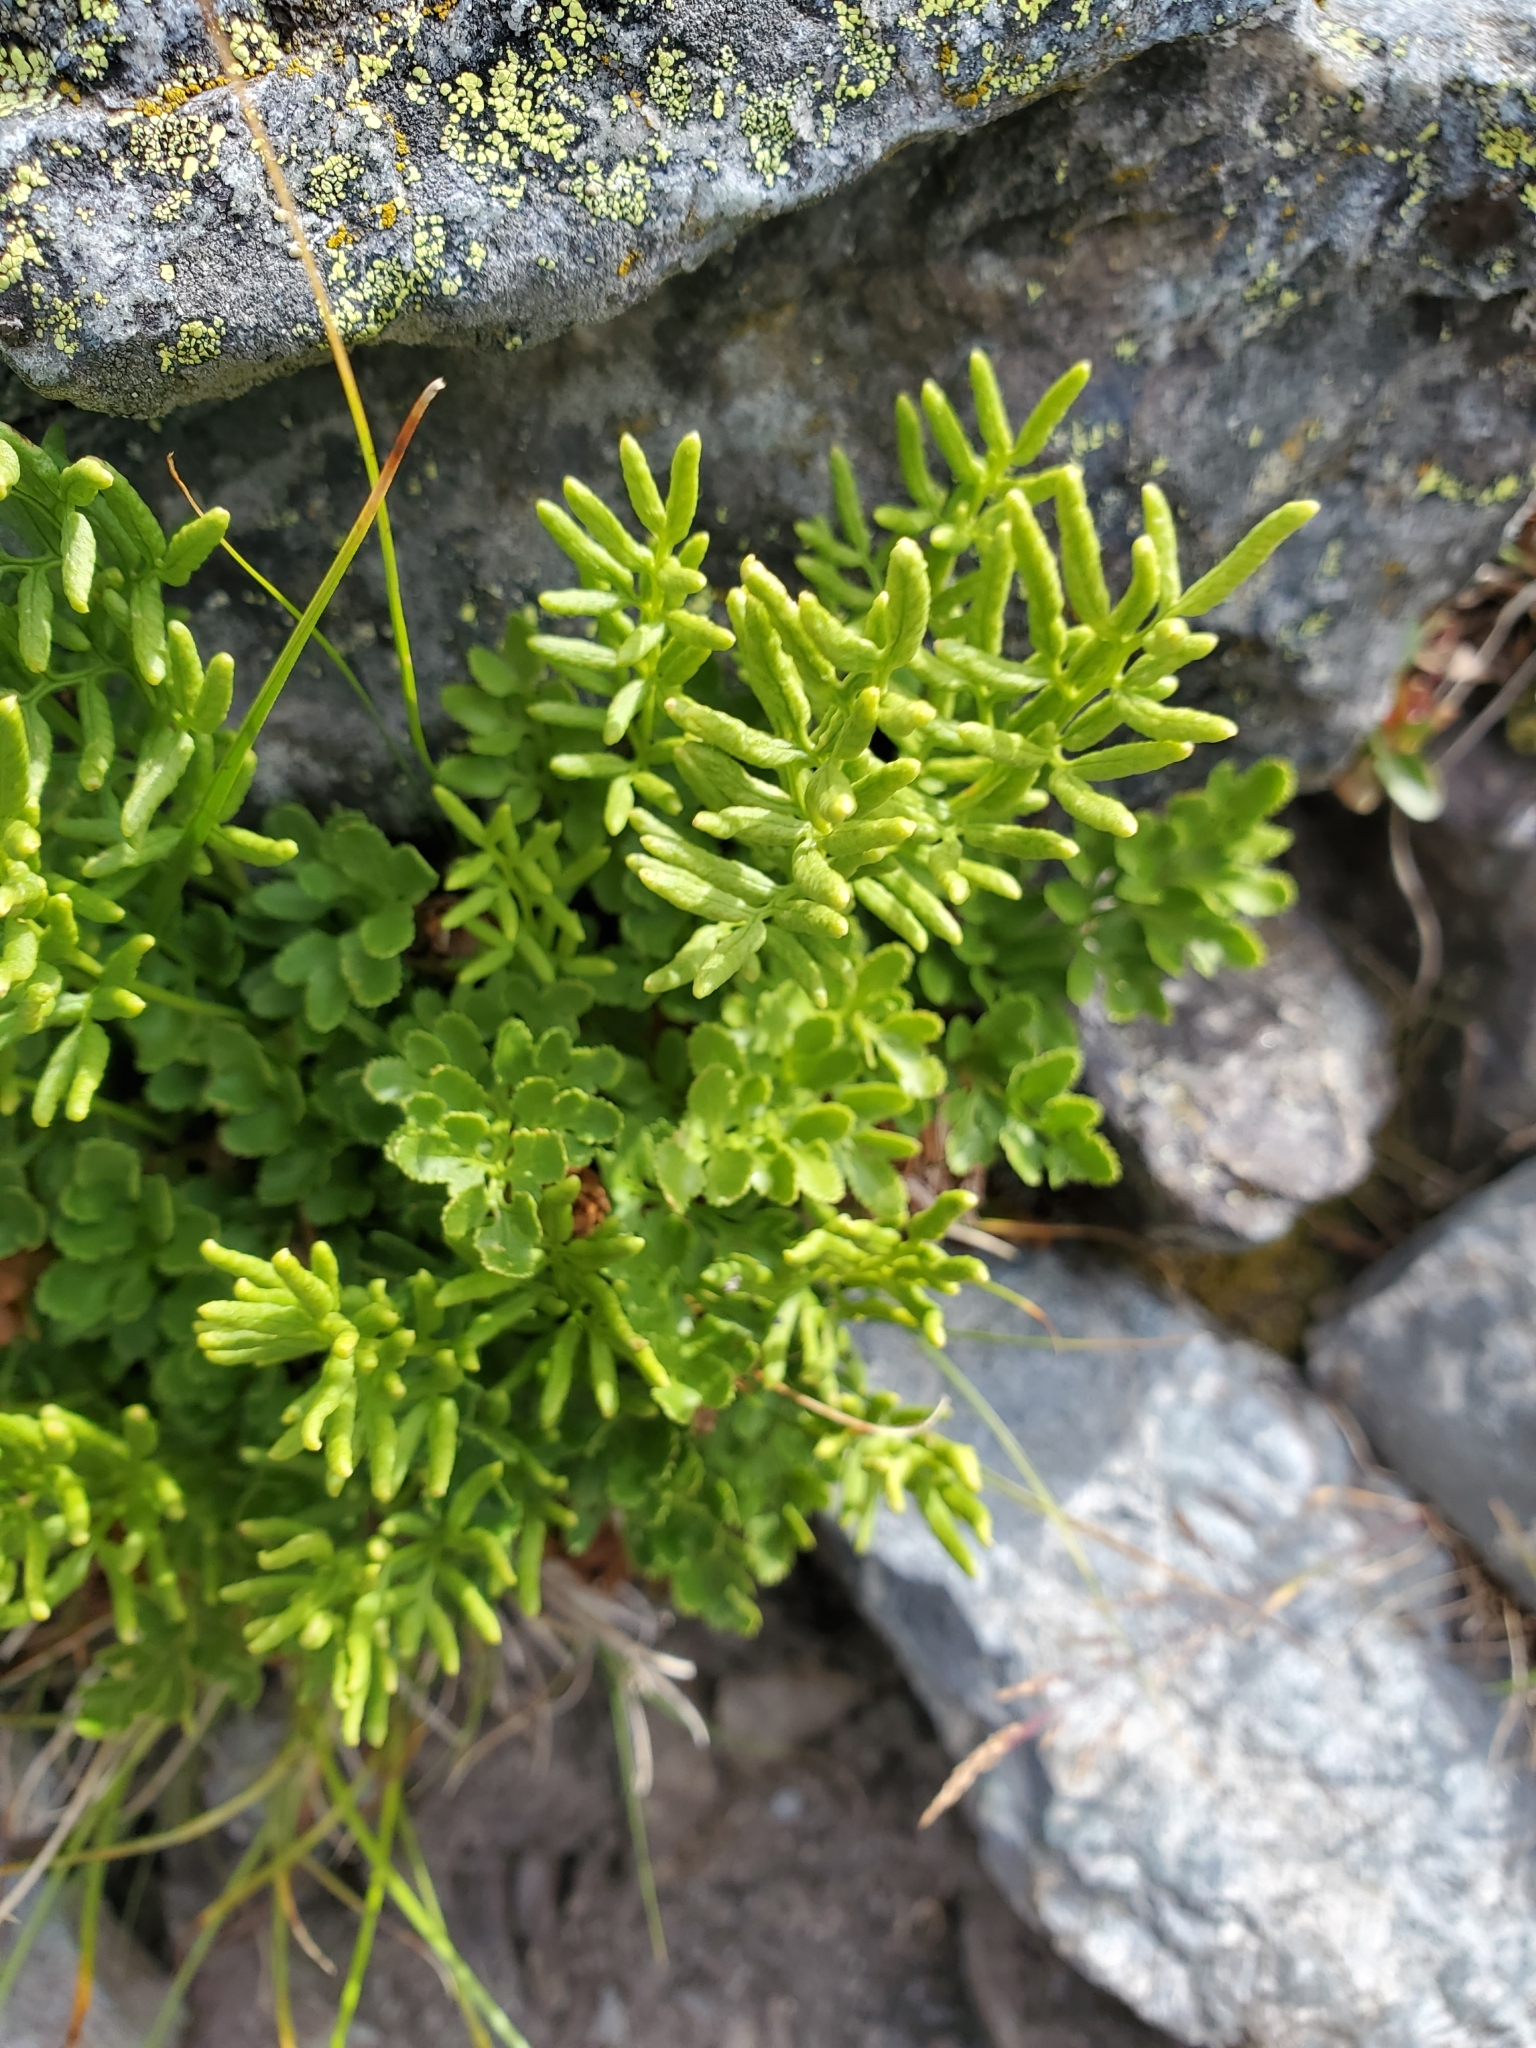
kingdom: Plantae
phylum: Tracheophyta
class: Polypodiopsida
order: Polypodiales
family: Pteridaceae
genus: Cryptogramma
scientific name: Cryptogramma acrostichoides
